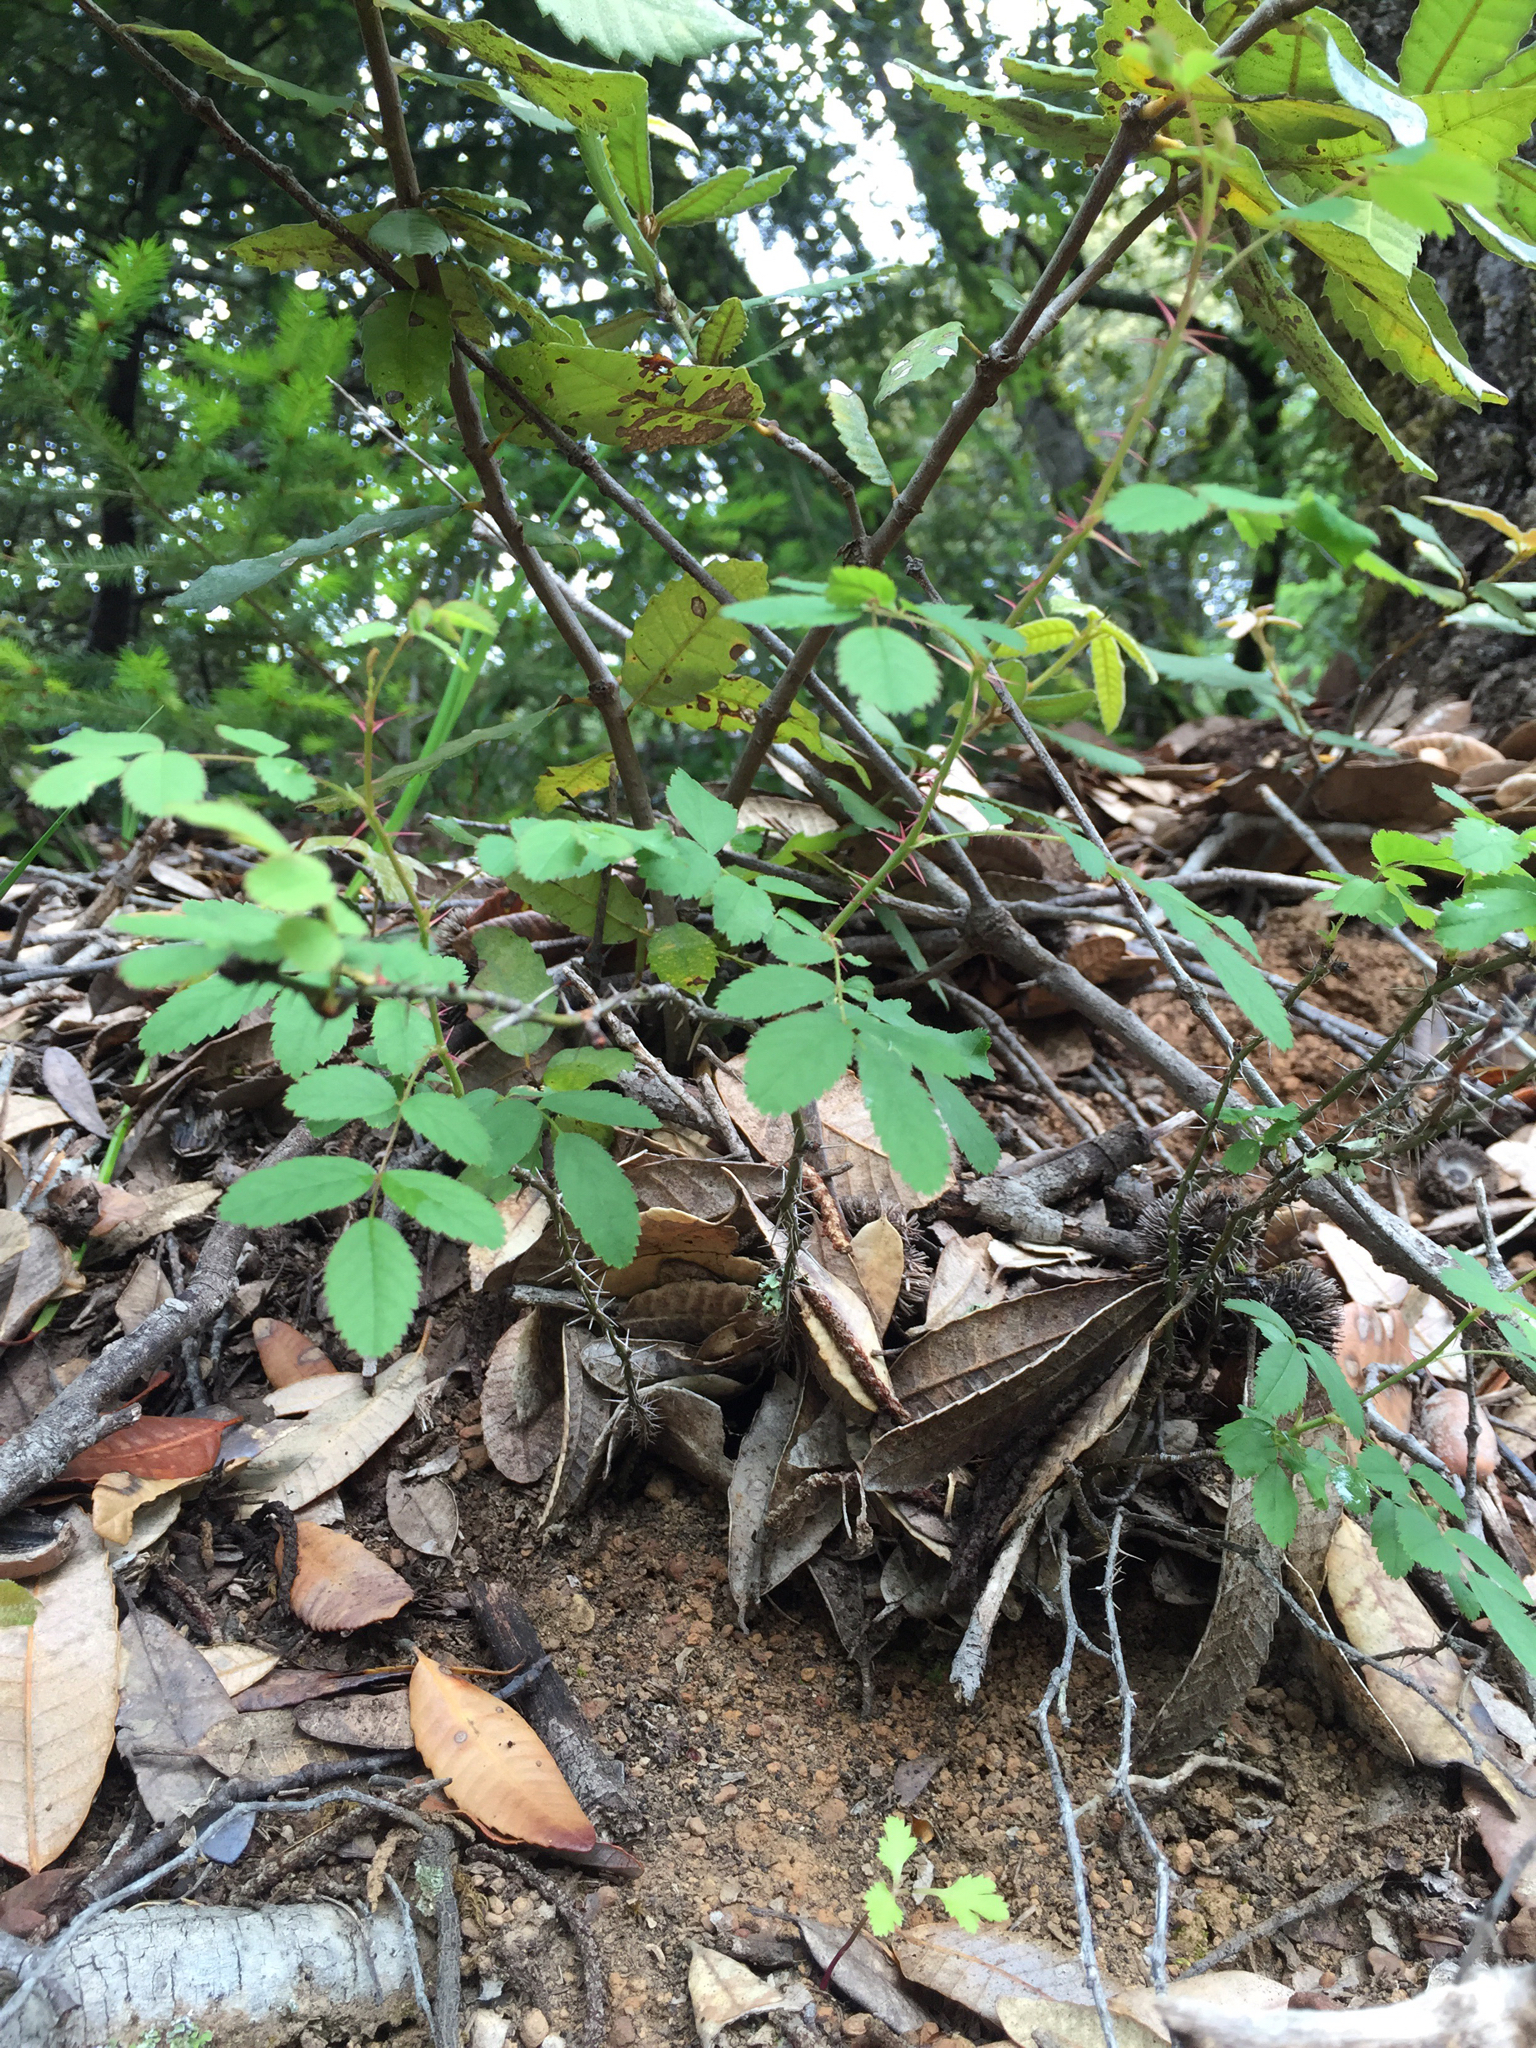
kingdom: Plantae
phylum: Tracheophyta
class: Magnoliopsida
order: Rosales
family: Rosaceae
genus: Rosa
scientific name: Rosa gymnocarpa
